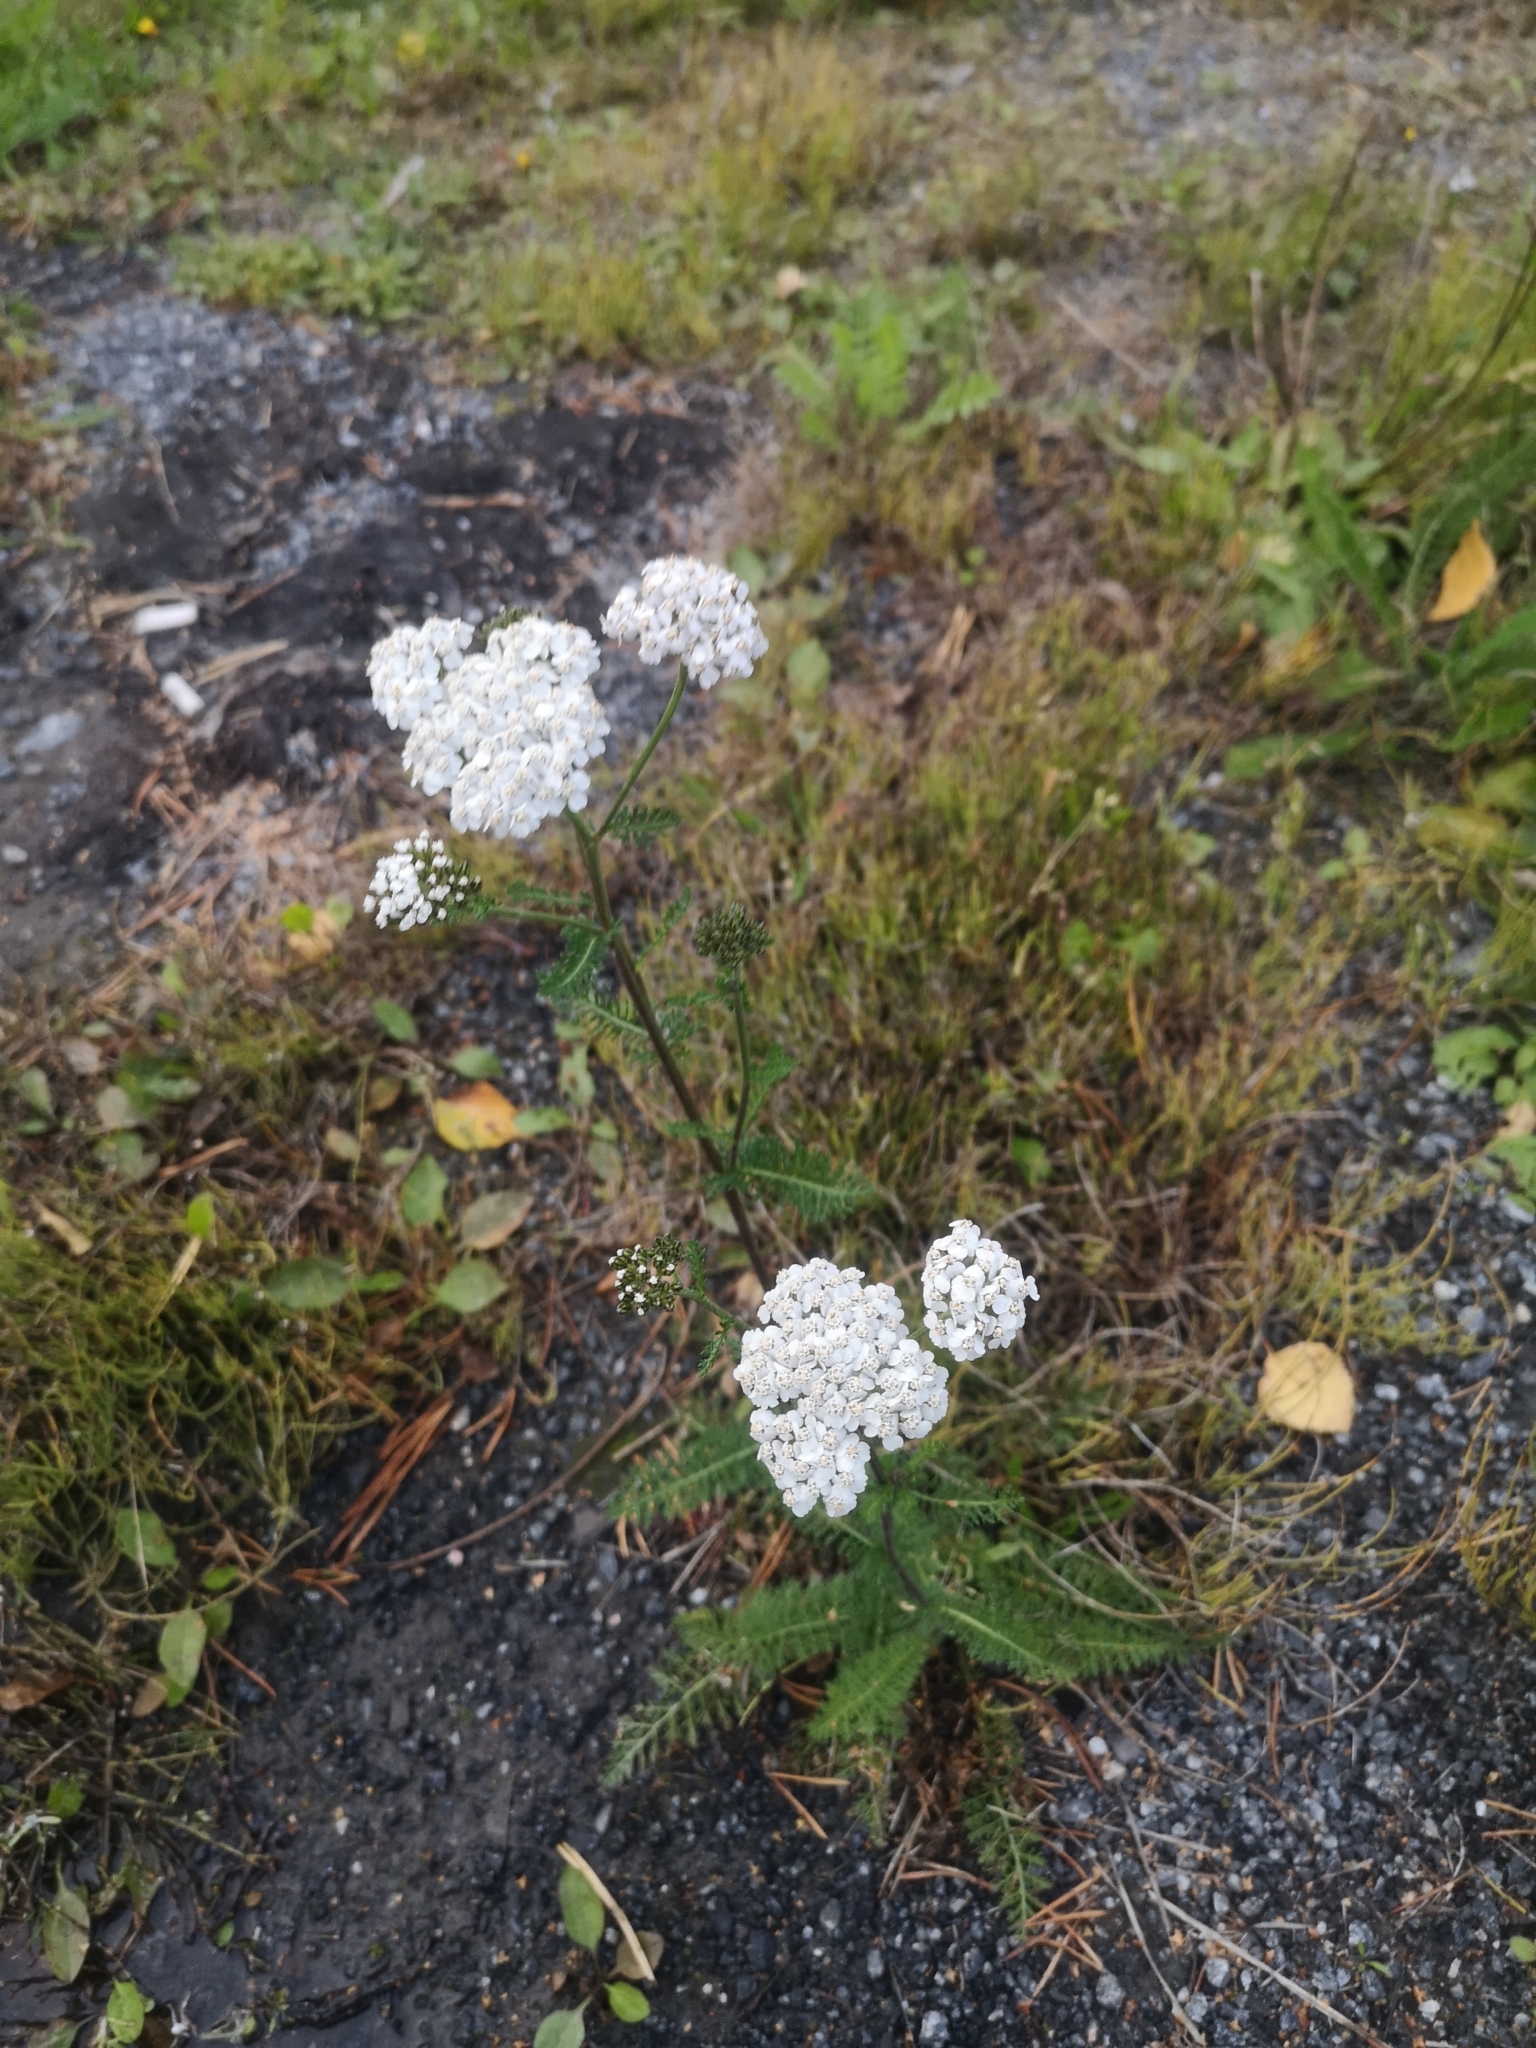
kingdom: Plantae
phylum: Tracheophyta
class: Magnoliopsida
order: Asterales
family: Asteraceae
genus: Achillea
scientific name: Achillea millefolium
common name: Yarrow
